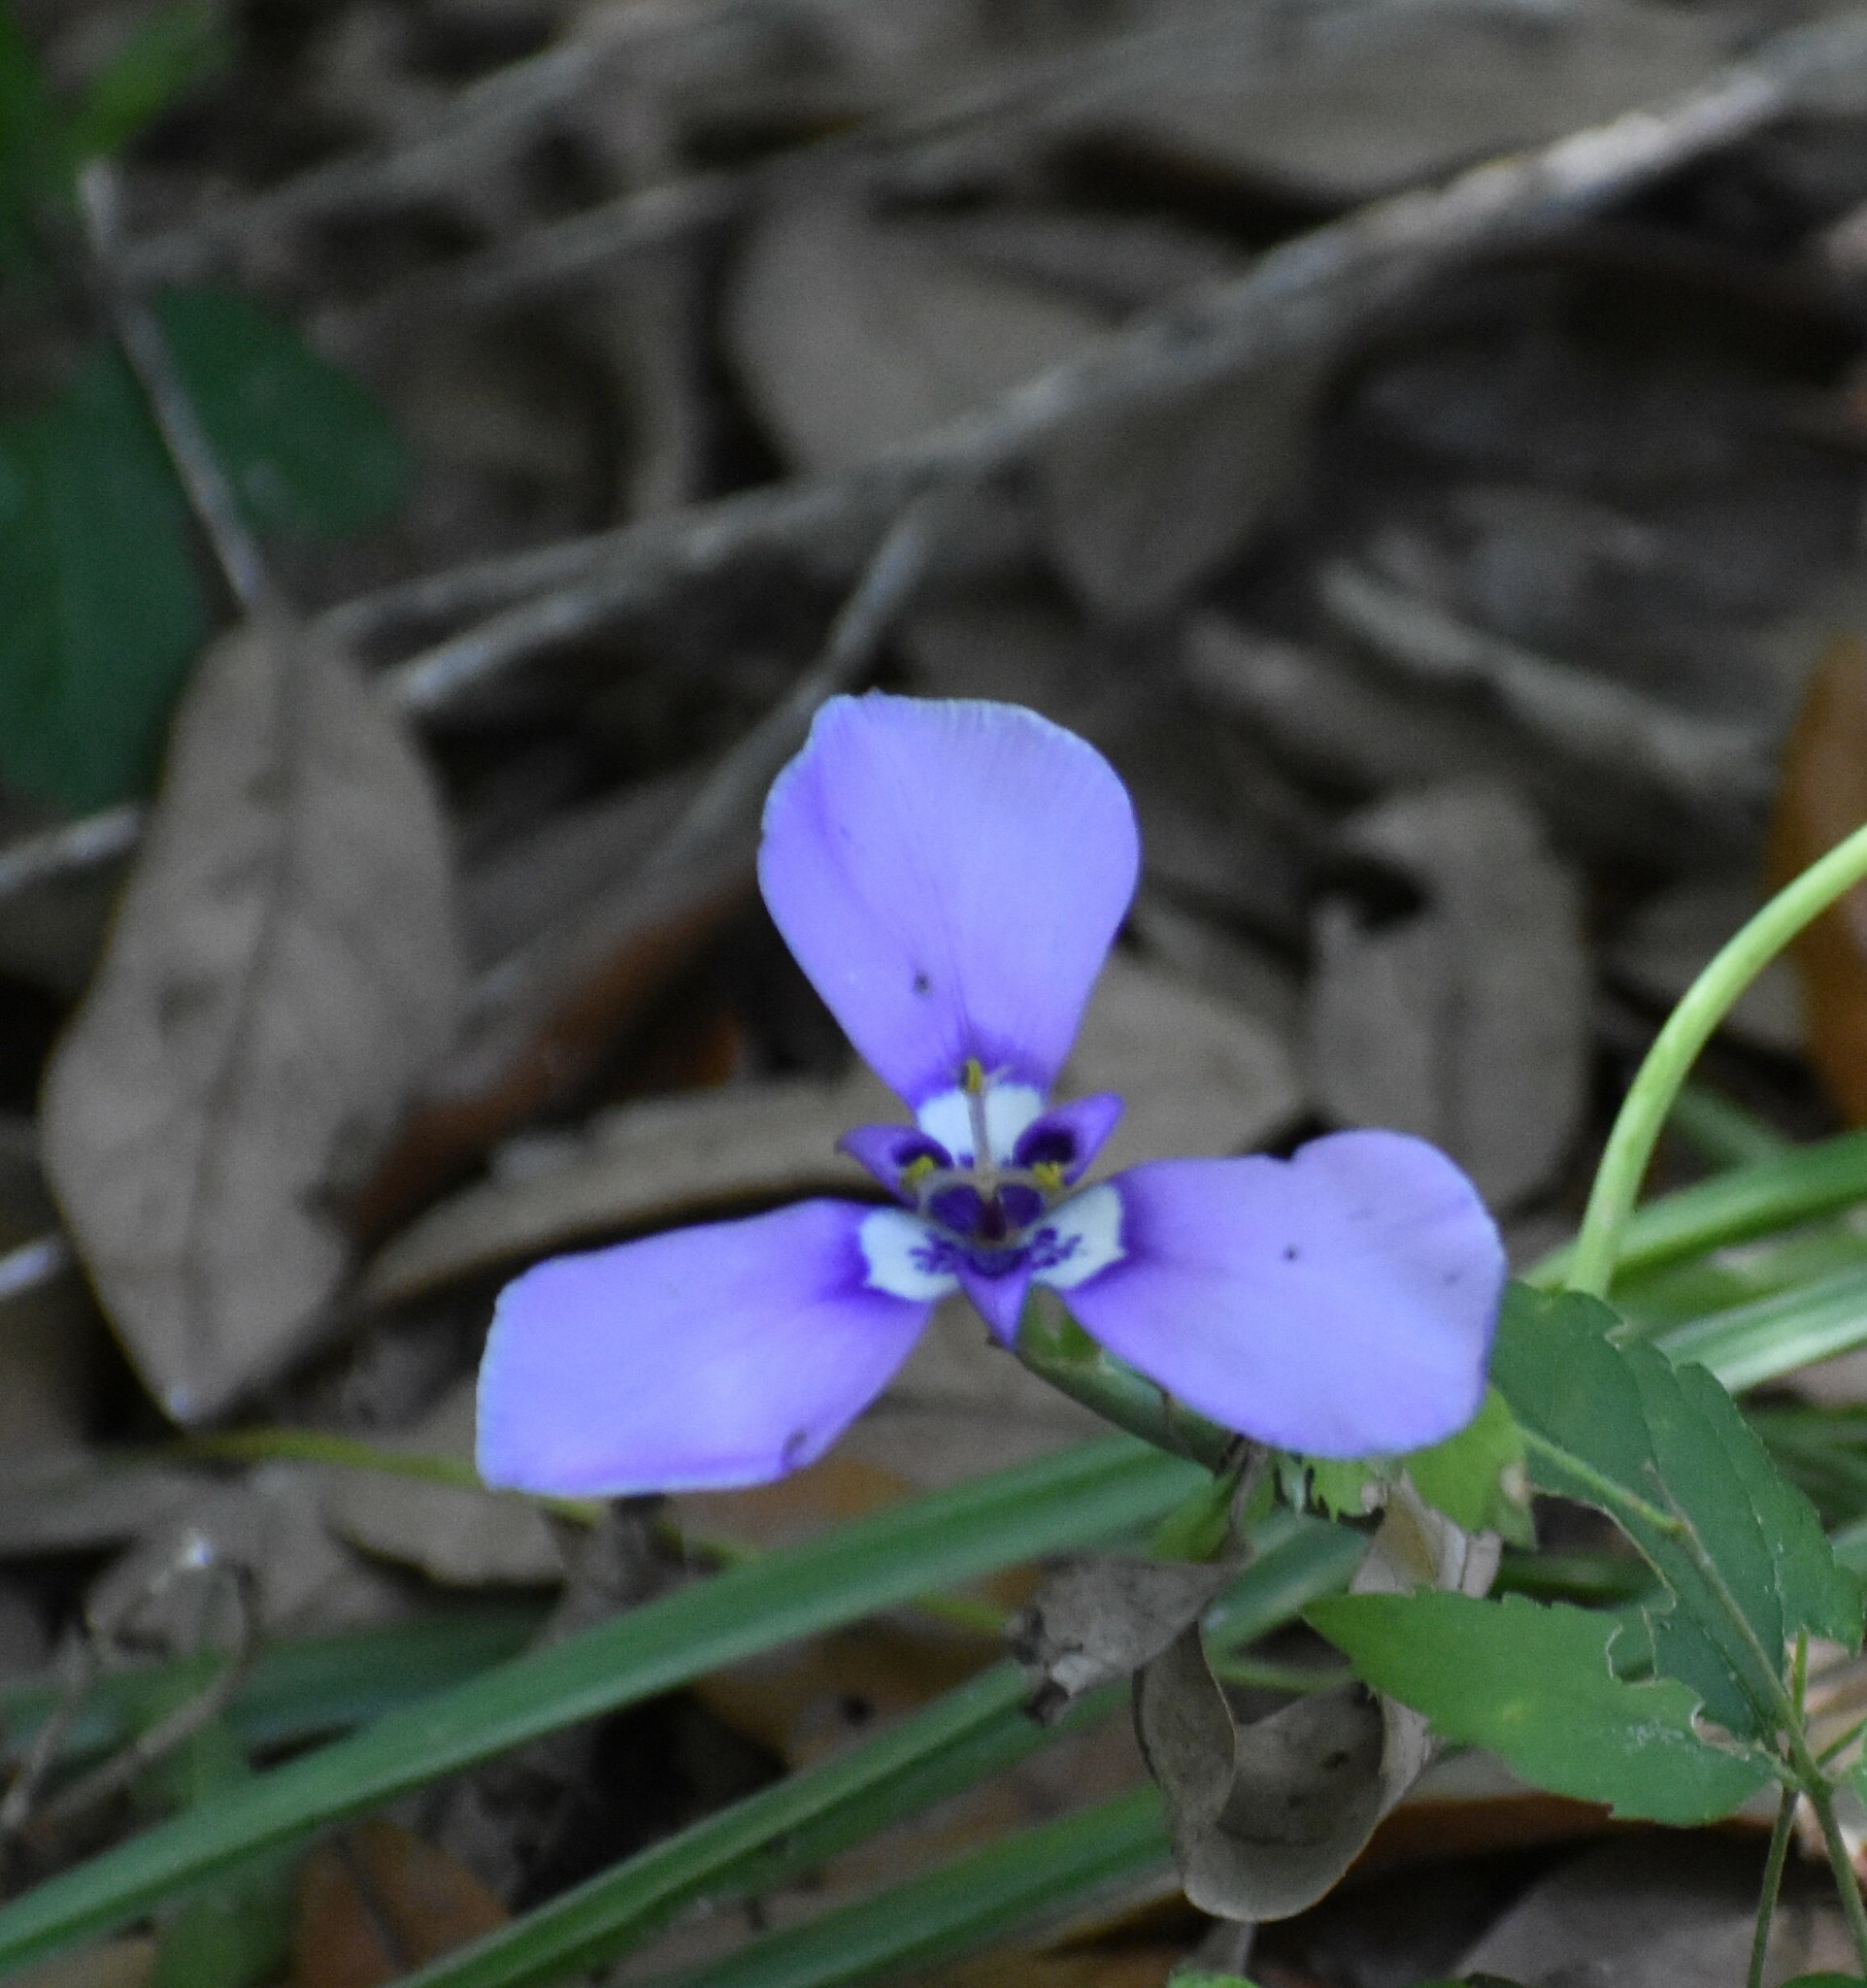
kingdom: Plantae
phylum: Tracheophyta
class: Liliopsida
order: Asparagales
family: Iridaceae
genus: Herbertia
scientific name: Herbertia lahue
